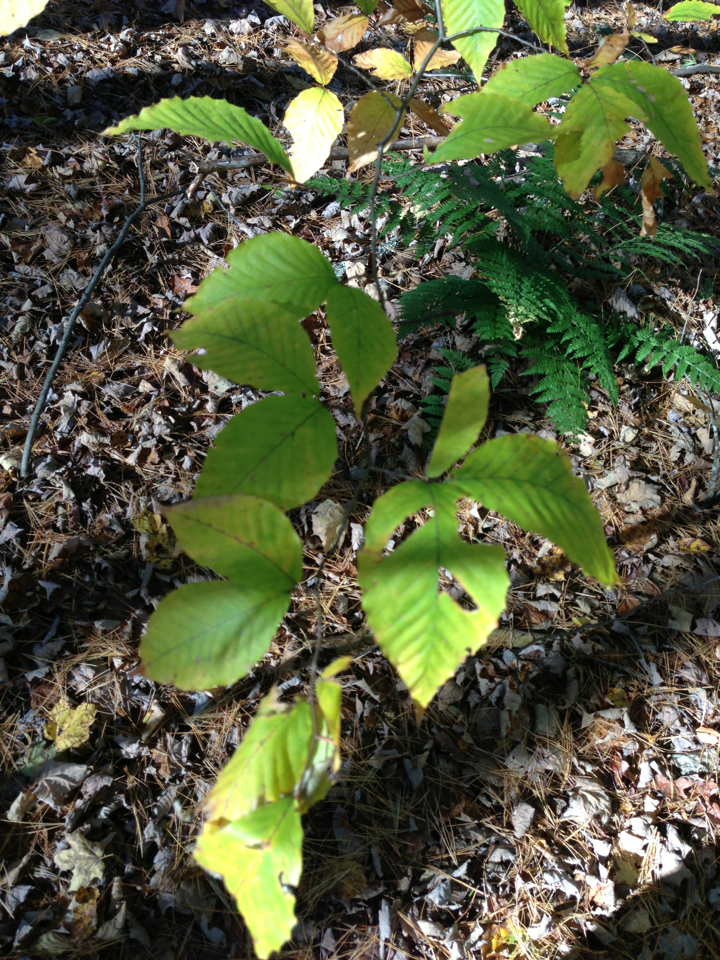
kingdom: Plantae
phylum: Tracheophyta
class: Magnoliopsida
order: Fagales
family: Fagaceae
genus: Fagus
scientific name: Fagus grandifolia
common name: American beech
